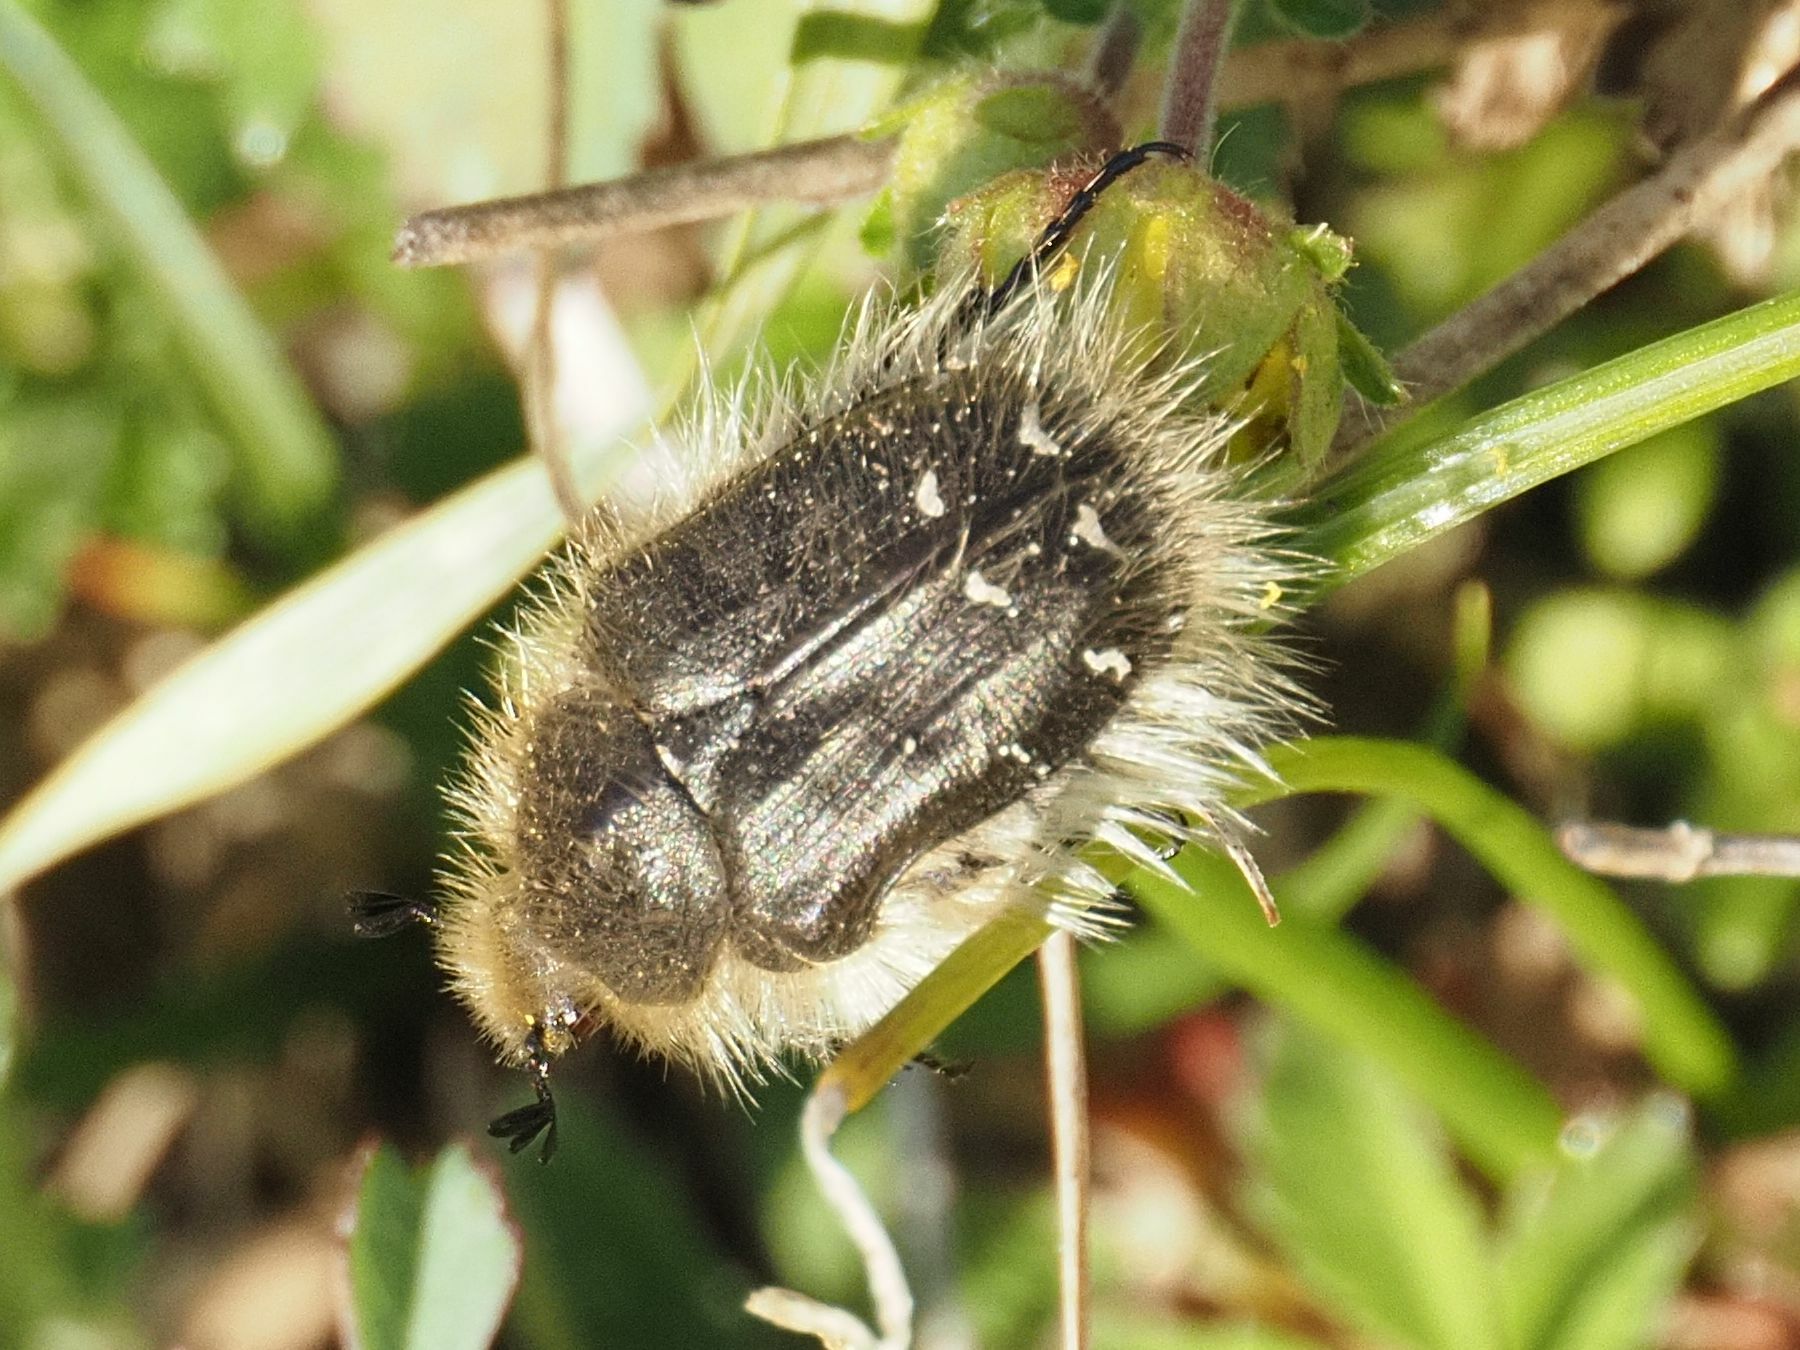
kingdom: Animalia
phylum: Arthropoda
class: Insecta
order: Coleoptera
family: Scarabaeidae
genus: Tropinota
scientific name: Tropinota hirta
